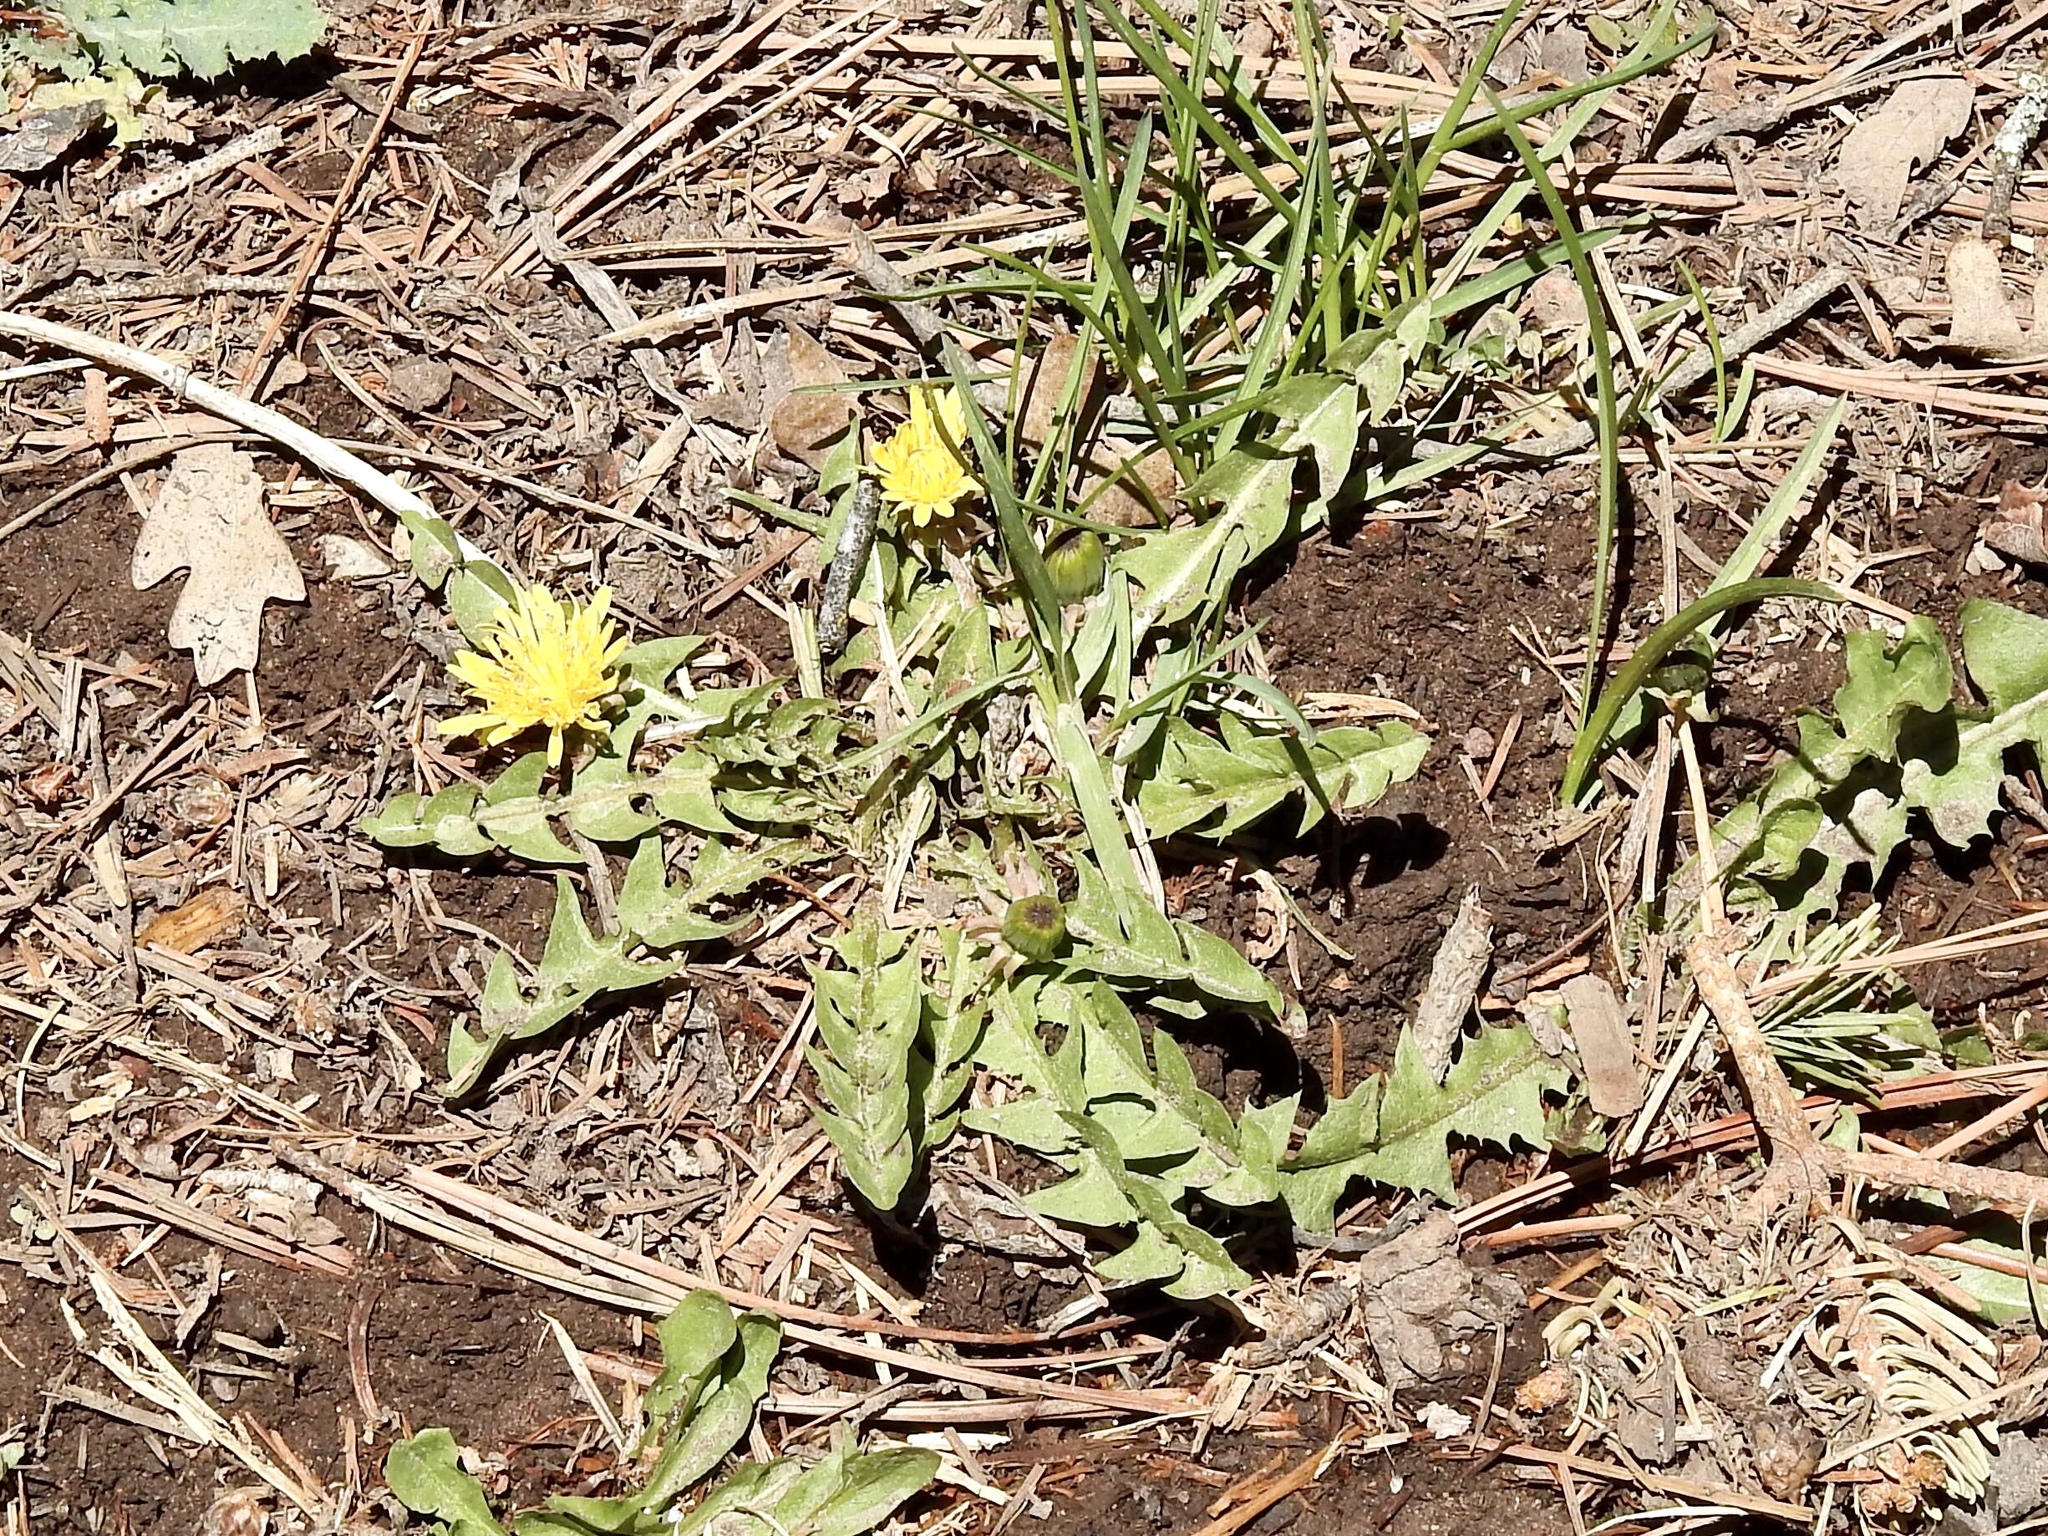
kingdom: Plantae
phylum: Tracheophyta
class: Magnoliopsida
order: Asterales
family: Asteraceae
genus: Taraxacum
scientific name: Taraxacum officinale
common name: Common dandelion
